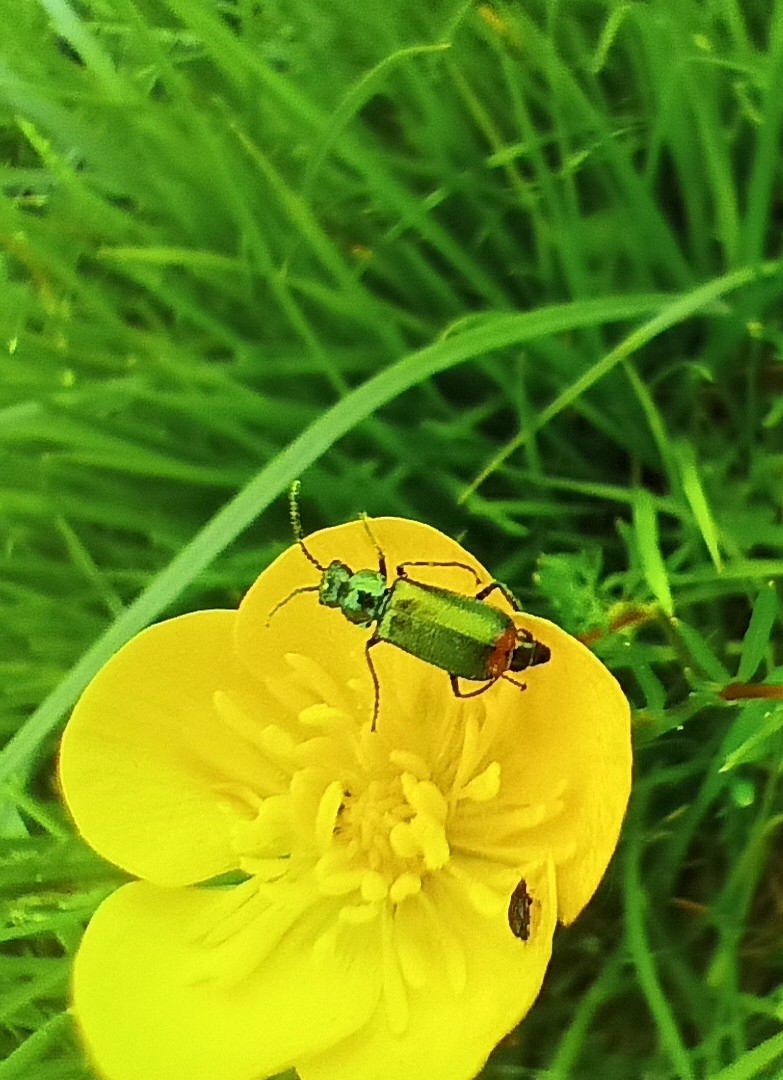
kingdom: Animalia
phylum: Arthropoda
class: Insecta
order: Coleoptera
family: Melyridae
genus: Malachius
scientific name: Malachius bipustulatus
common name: Malachite beetle
